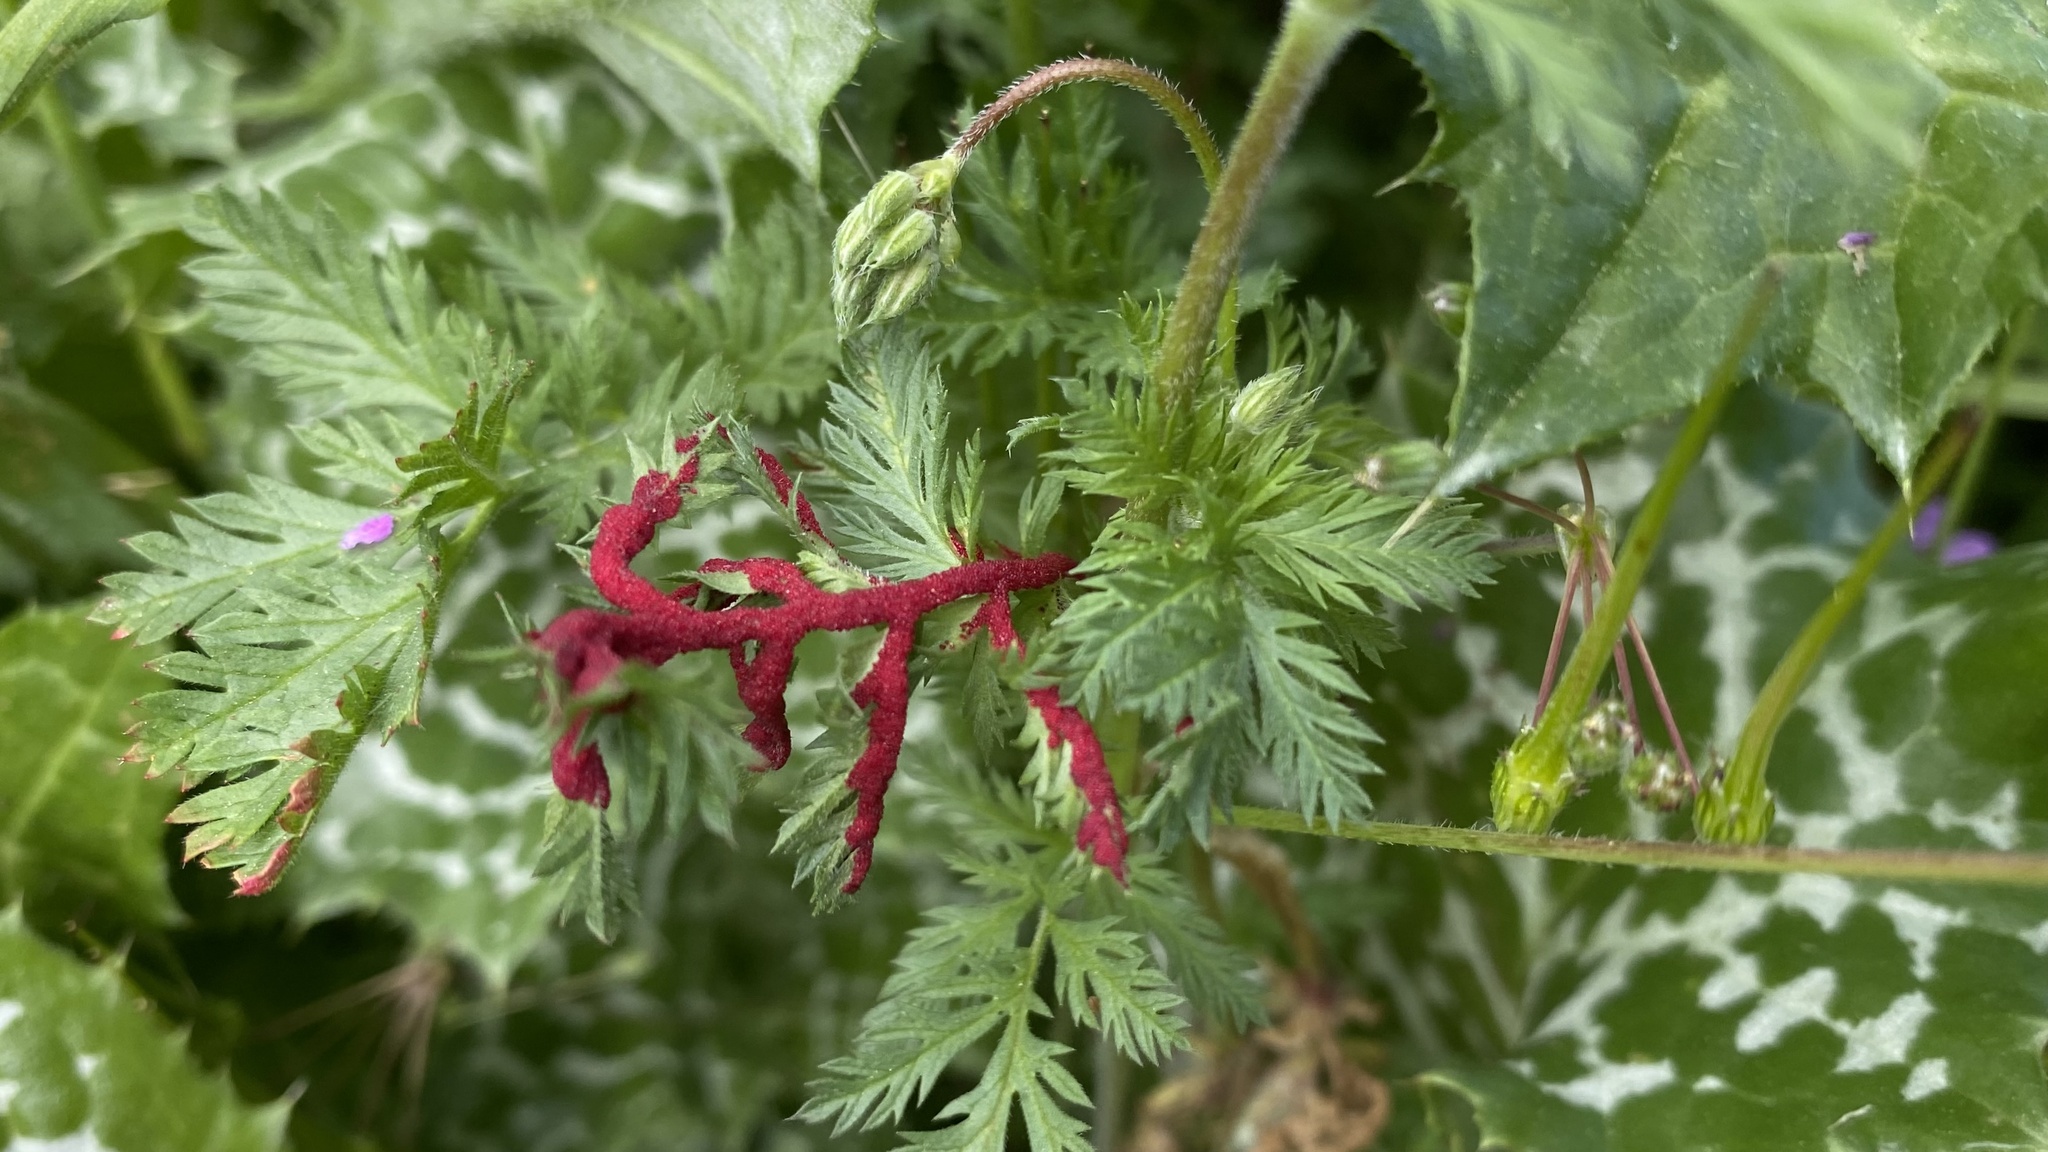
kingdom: Fungi
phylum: Chytridiomycota
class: Chytridiomycetes
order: Chytridiales
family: Synchytriaceae
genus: Synchytrium
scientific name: Synchytrium papillatum
